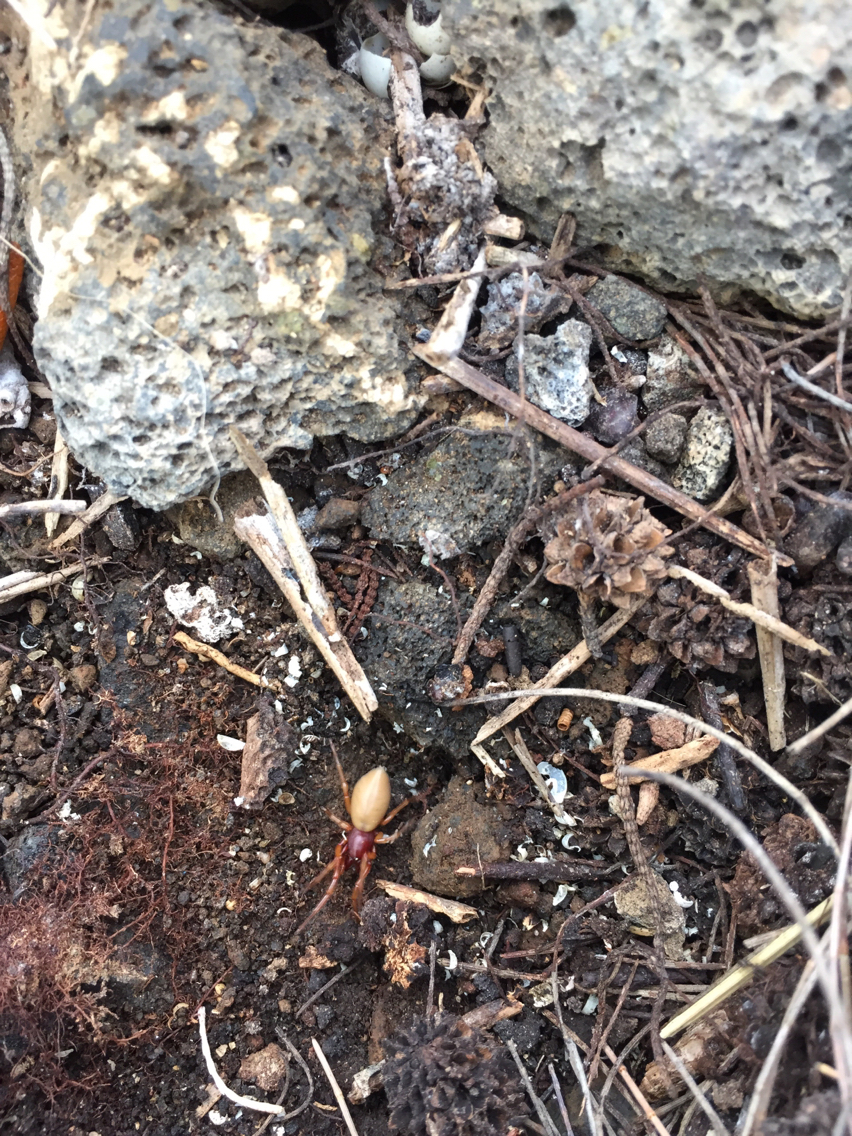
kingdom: Animalia
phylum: Arthropoda
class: Arachnida
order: Araneae
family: Dysderidae
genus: Dysdera
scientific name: Dysdera crocata
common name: Woodlouse spider
